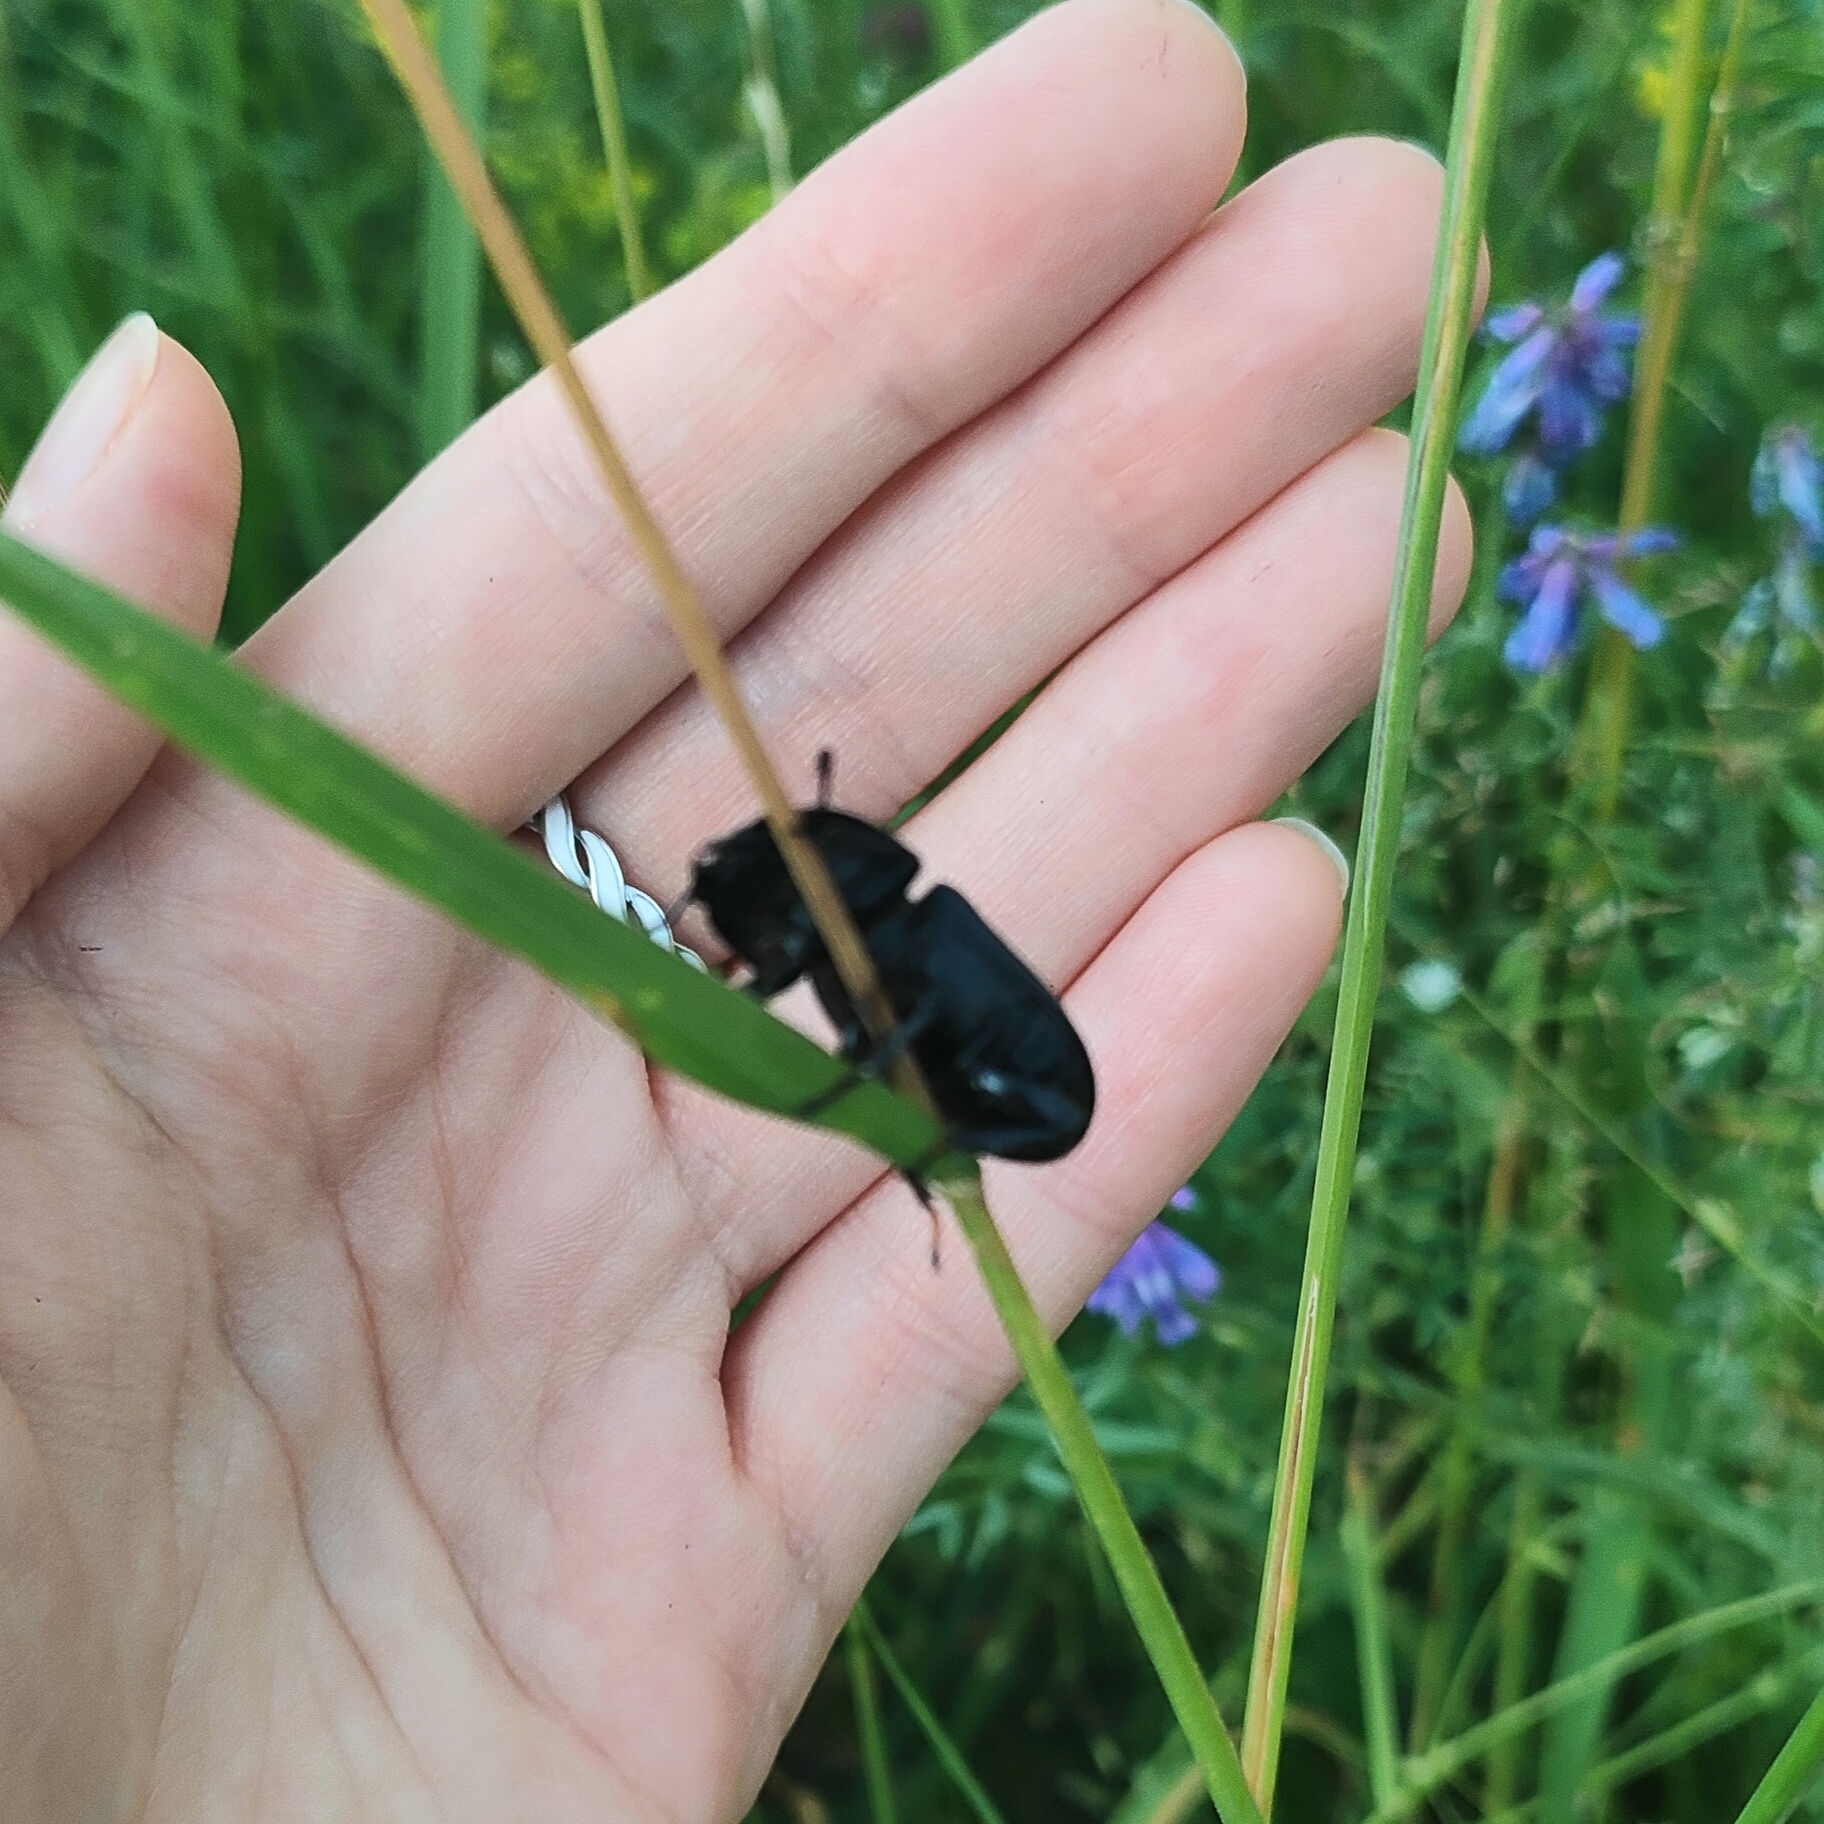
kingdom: Animalia
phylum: Arthropoda
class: Insecta
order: Coleoptera
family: Lucanidae
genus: Dorcus
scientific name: Dorcus parallelipipedus
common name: Lesser stag beetle
